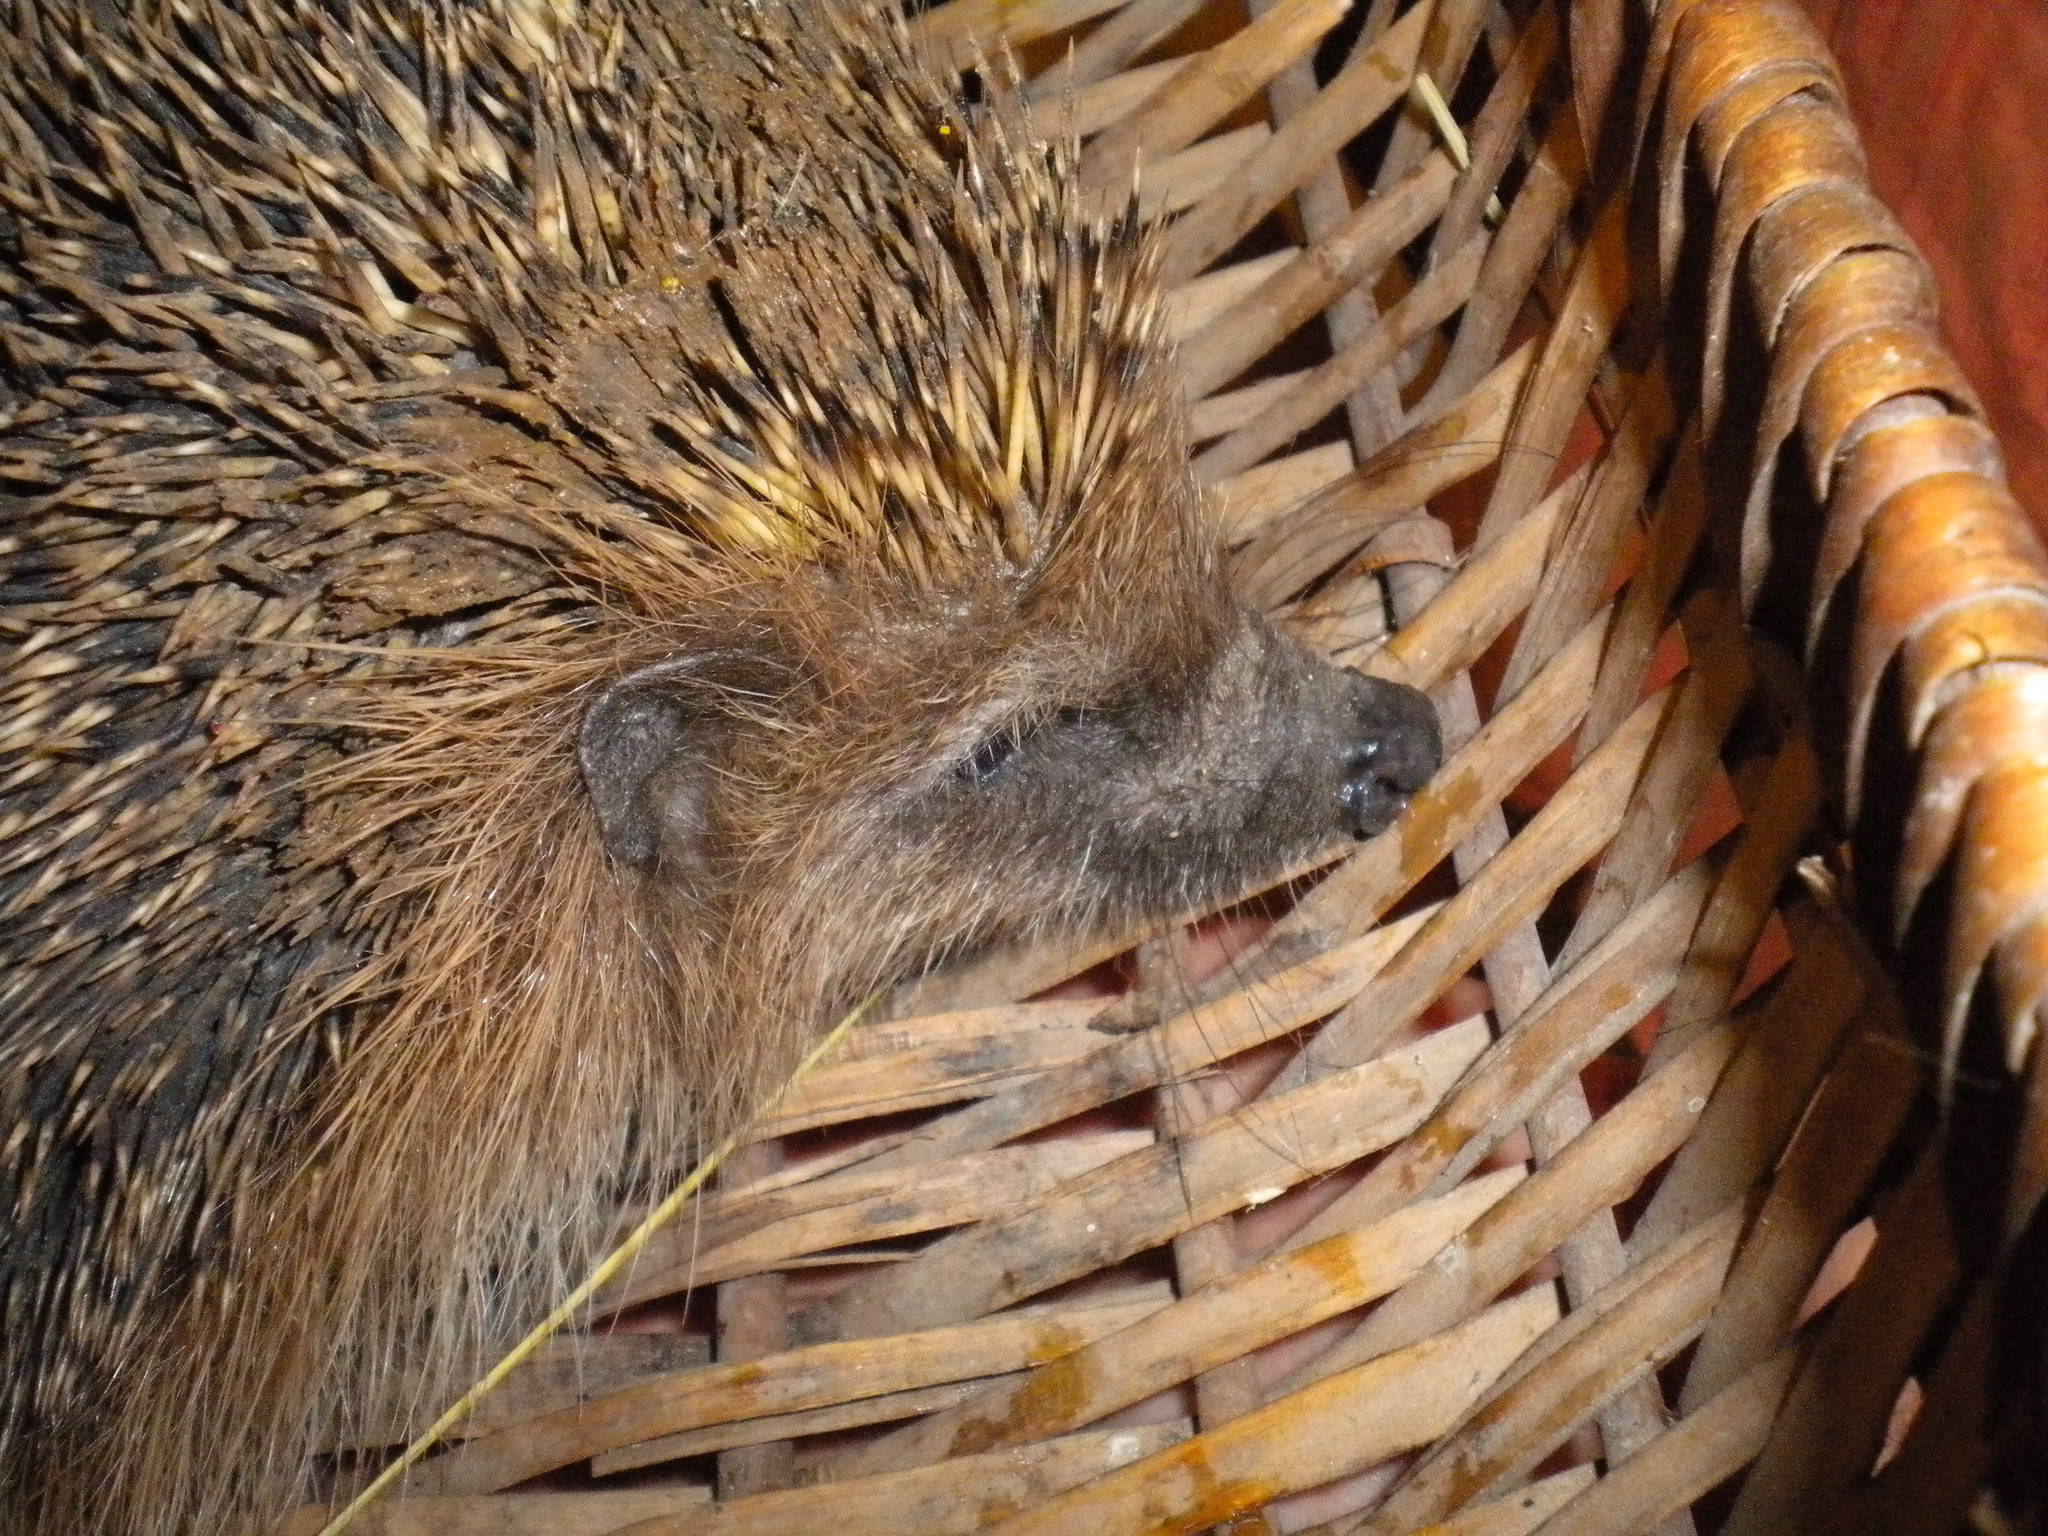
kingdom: Animalia
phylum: Chordata
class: Mammalia
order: Erinaceomorpha
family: Erinaceidae
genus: Erinaceus
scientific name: Erinaceus europaeus
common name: West european hedgehog
